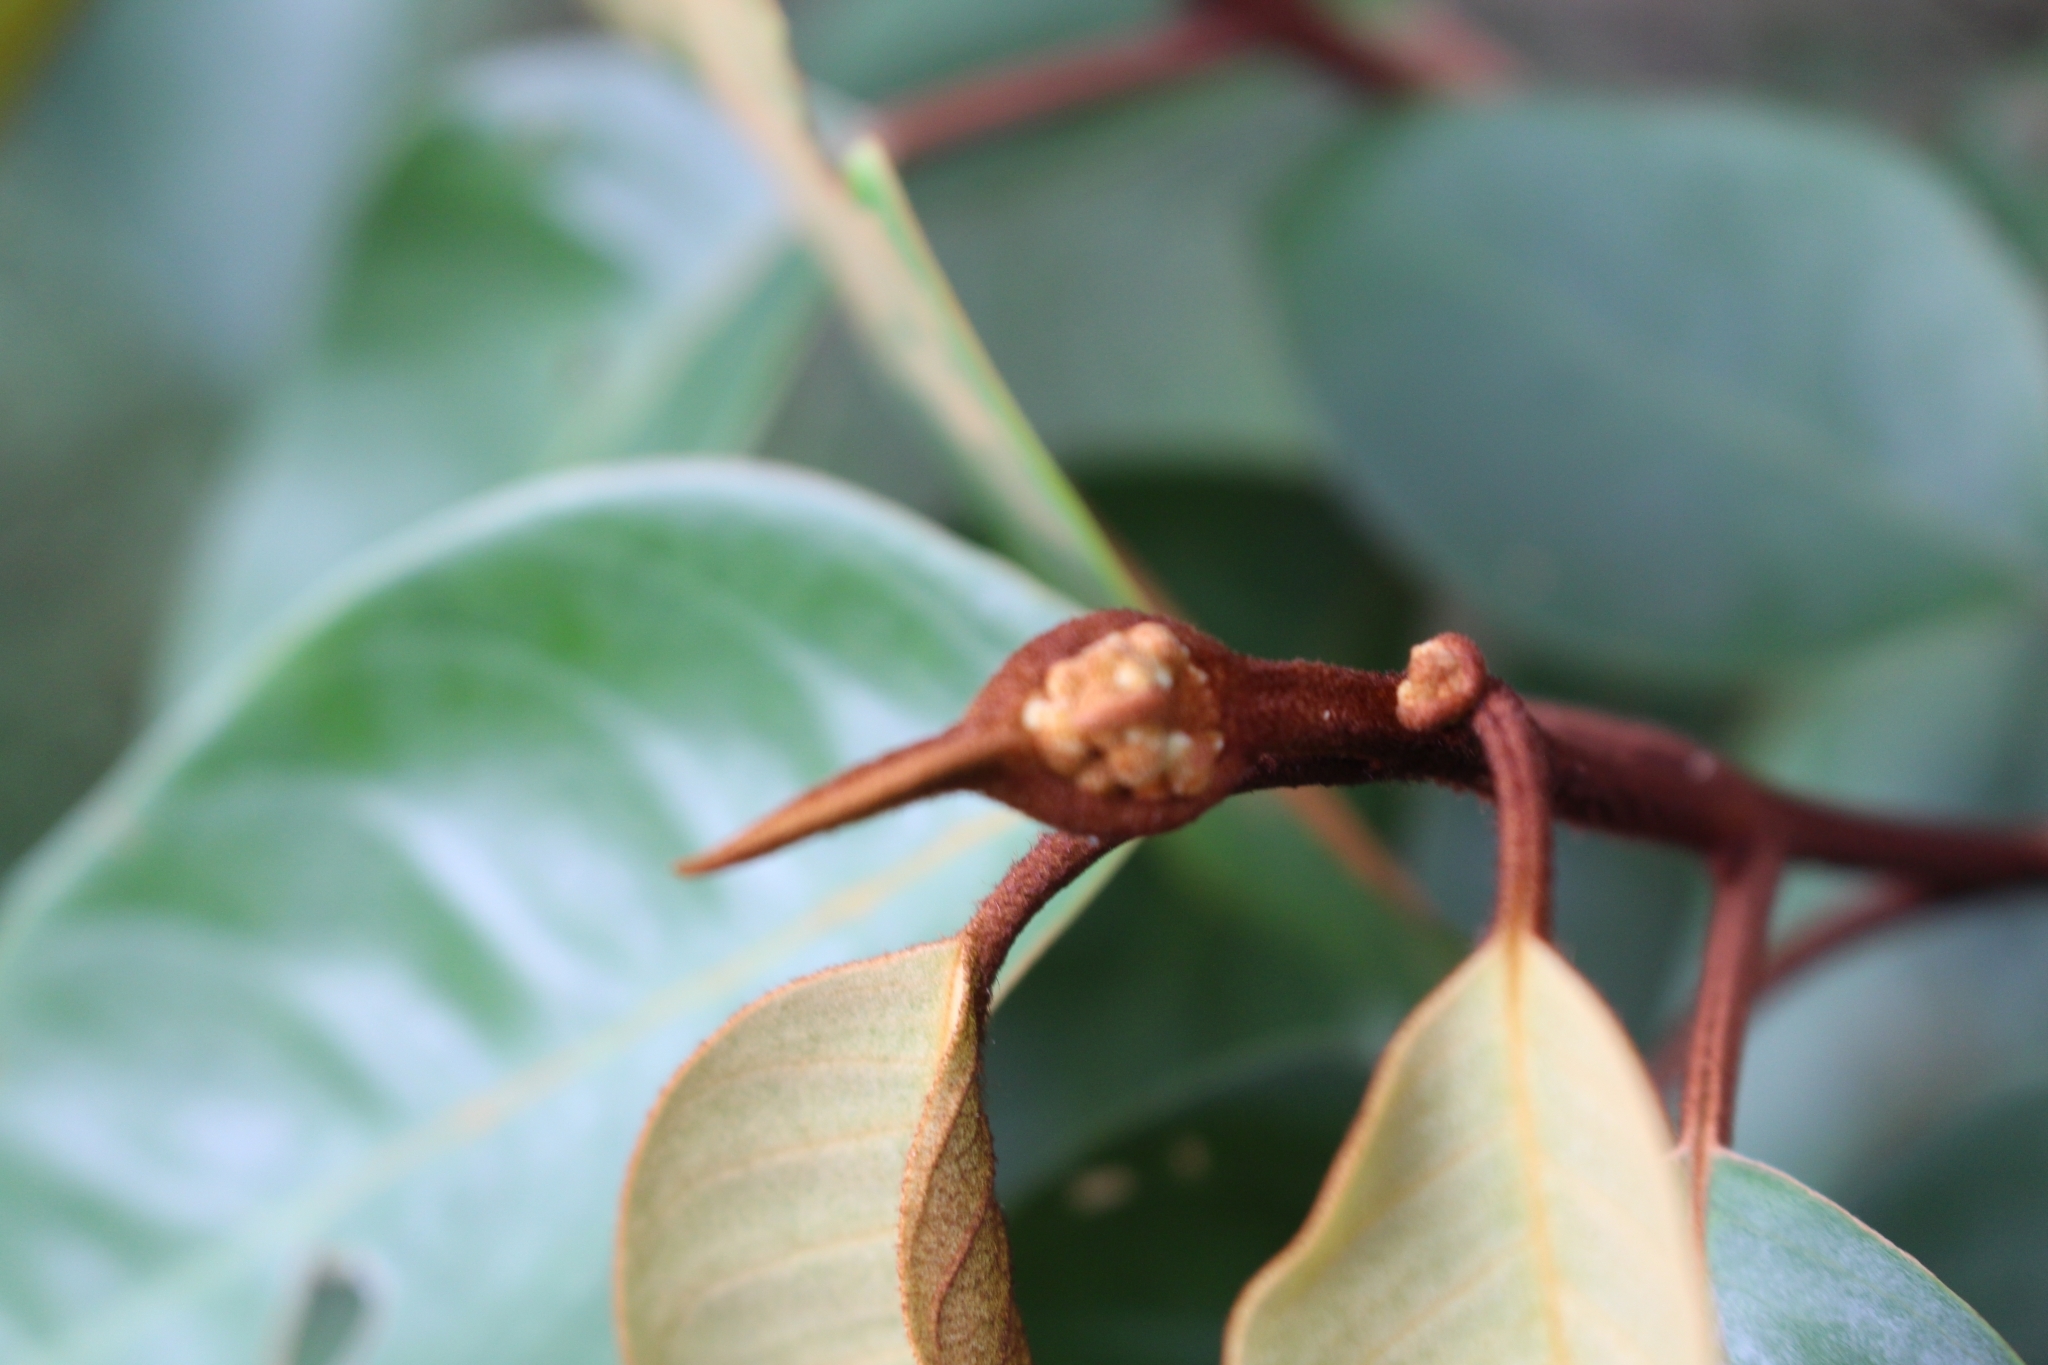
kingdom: Plantae
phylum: Tracheophyta
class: Magnoliopsida
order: Malpighiales
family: Hypericaceae
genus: Vismia
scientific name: Vismia baccifera
